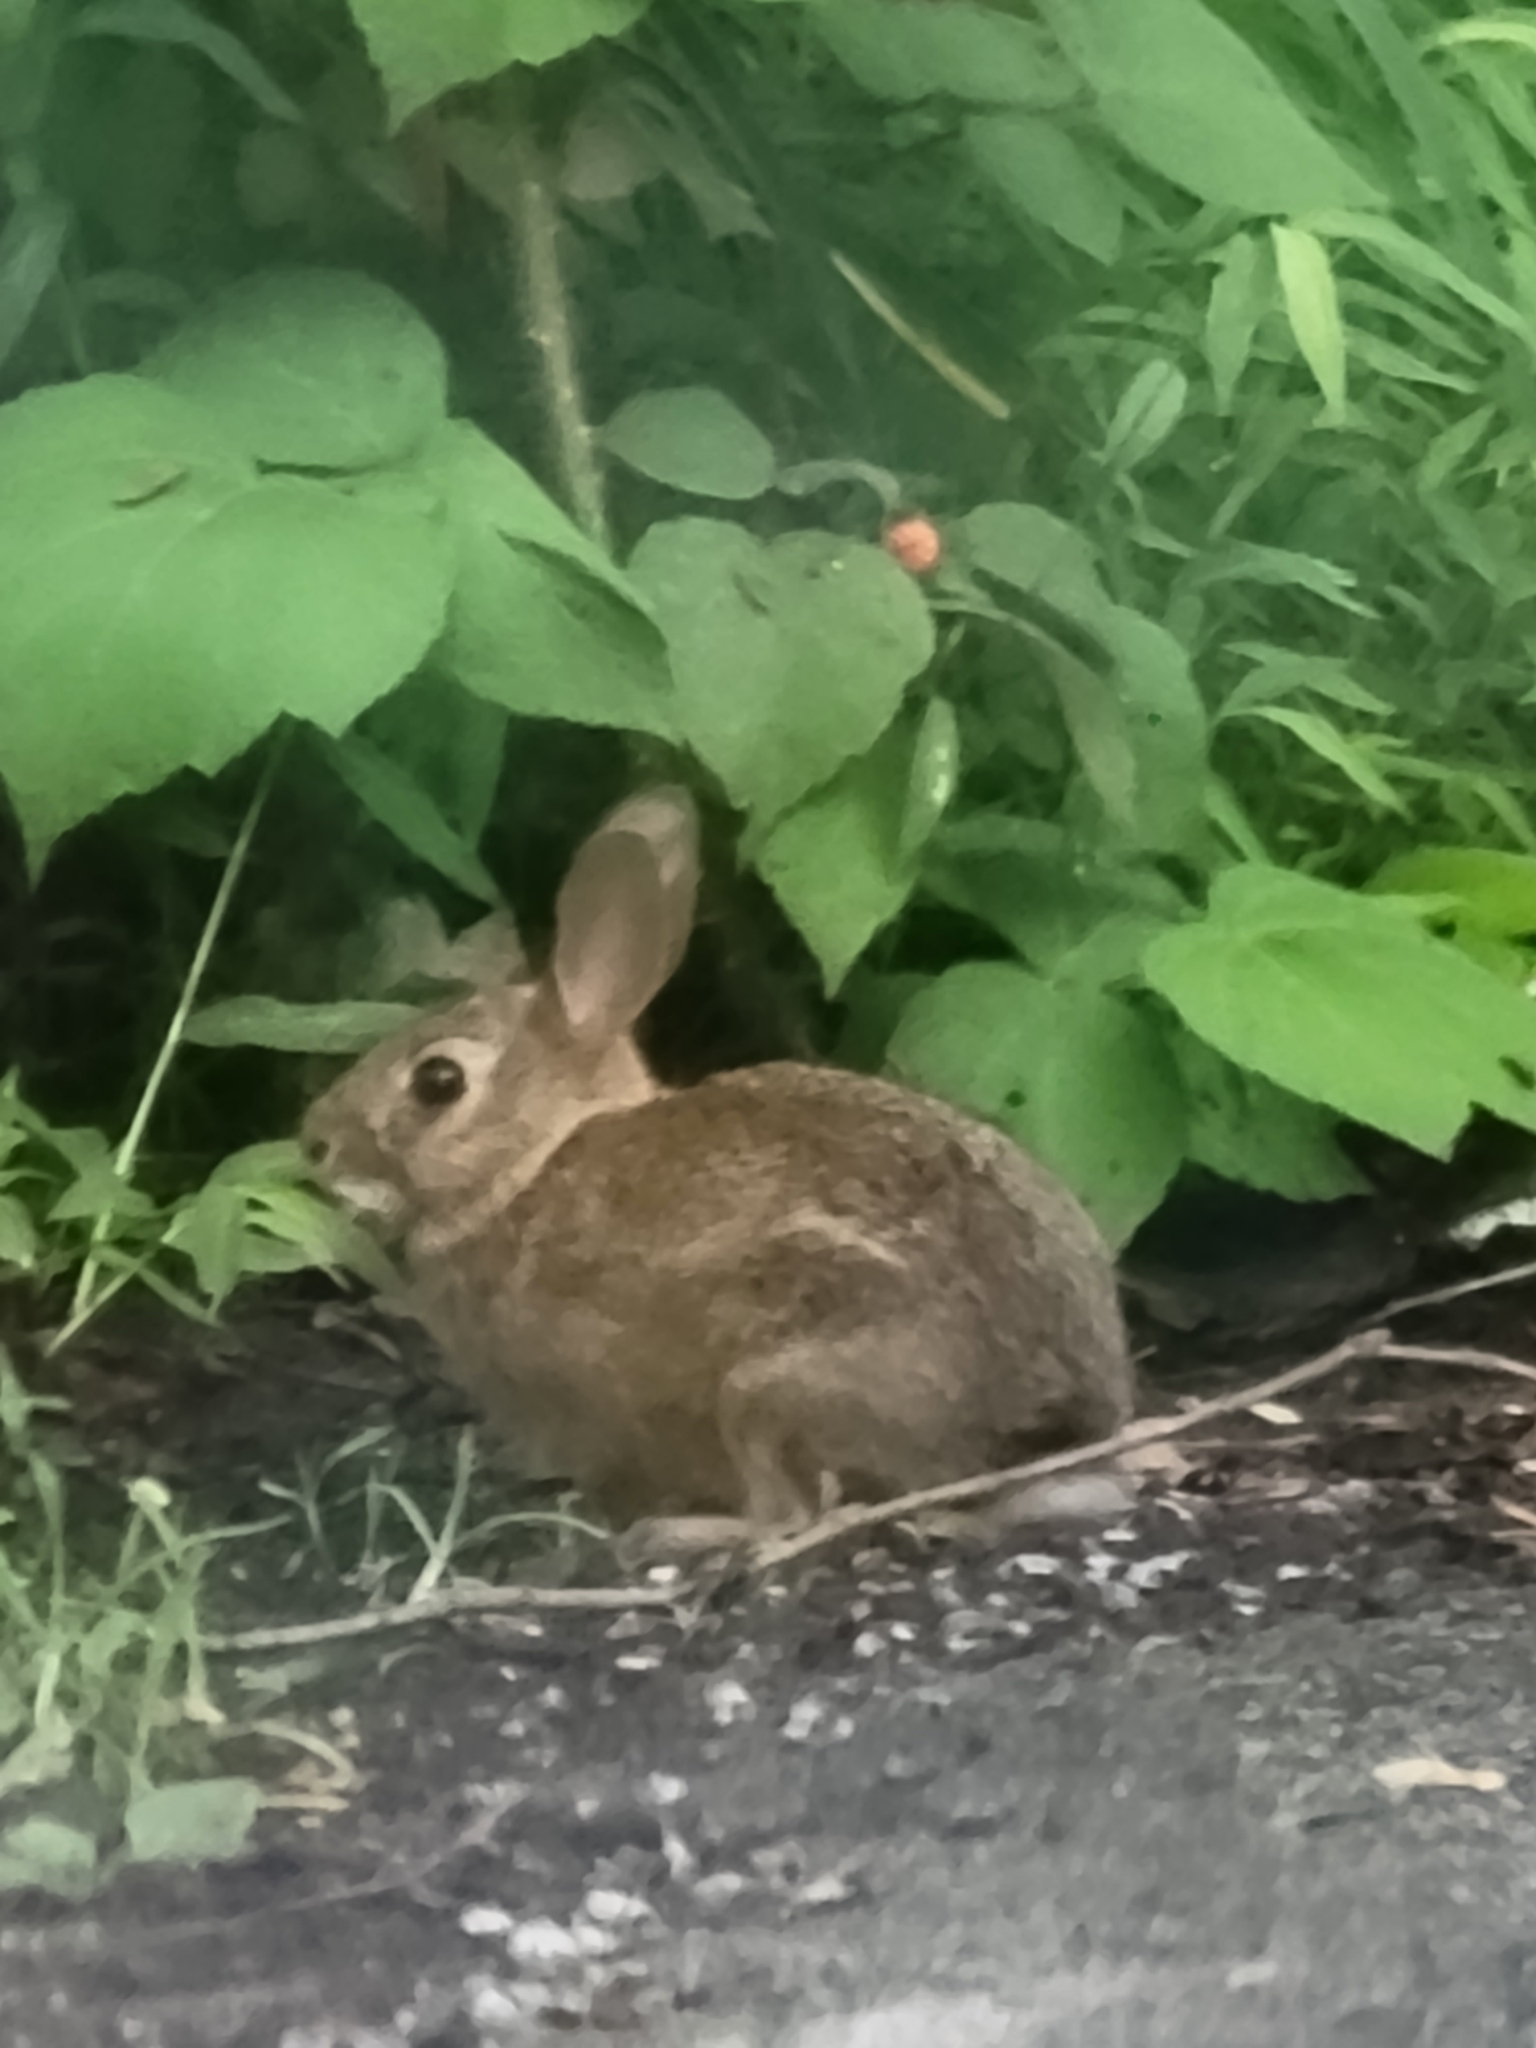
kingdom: Animalia
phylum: Chordata
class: Mammalia
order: Lagomorpha
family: Leporidae
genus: Sylvilagus
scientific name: Sylvilagus floridanus
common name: Eastern cottontail
